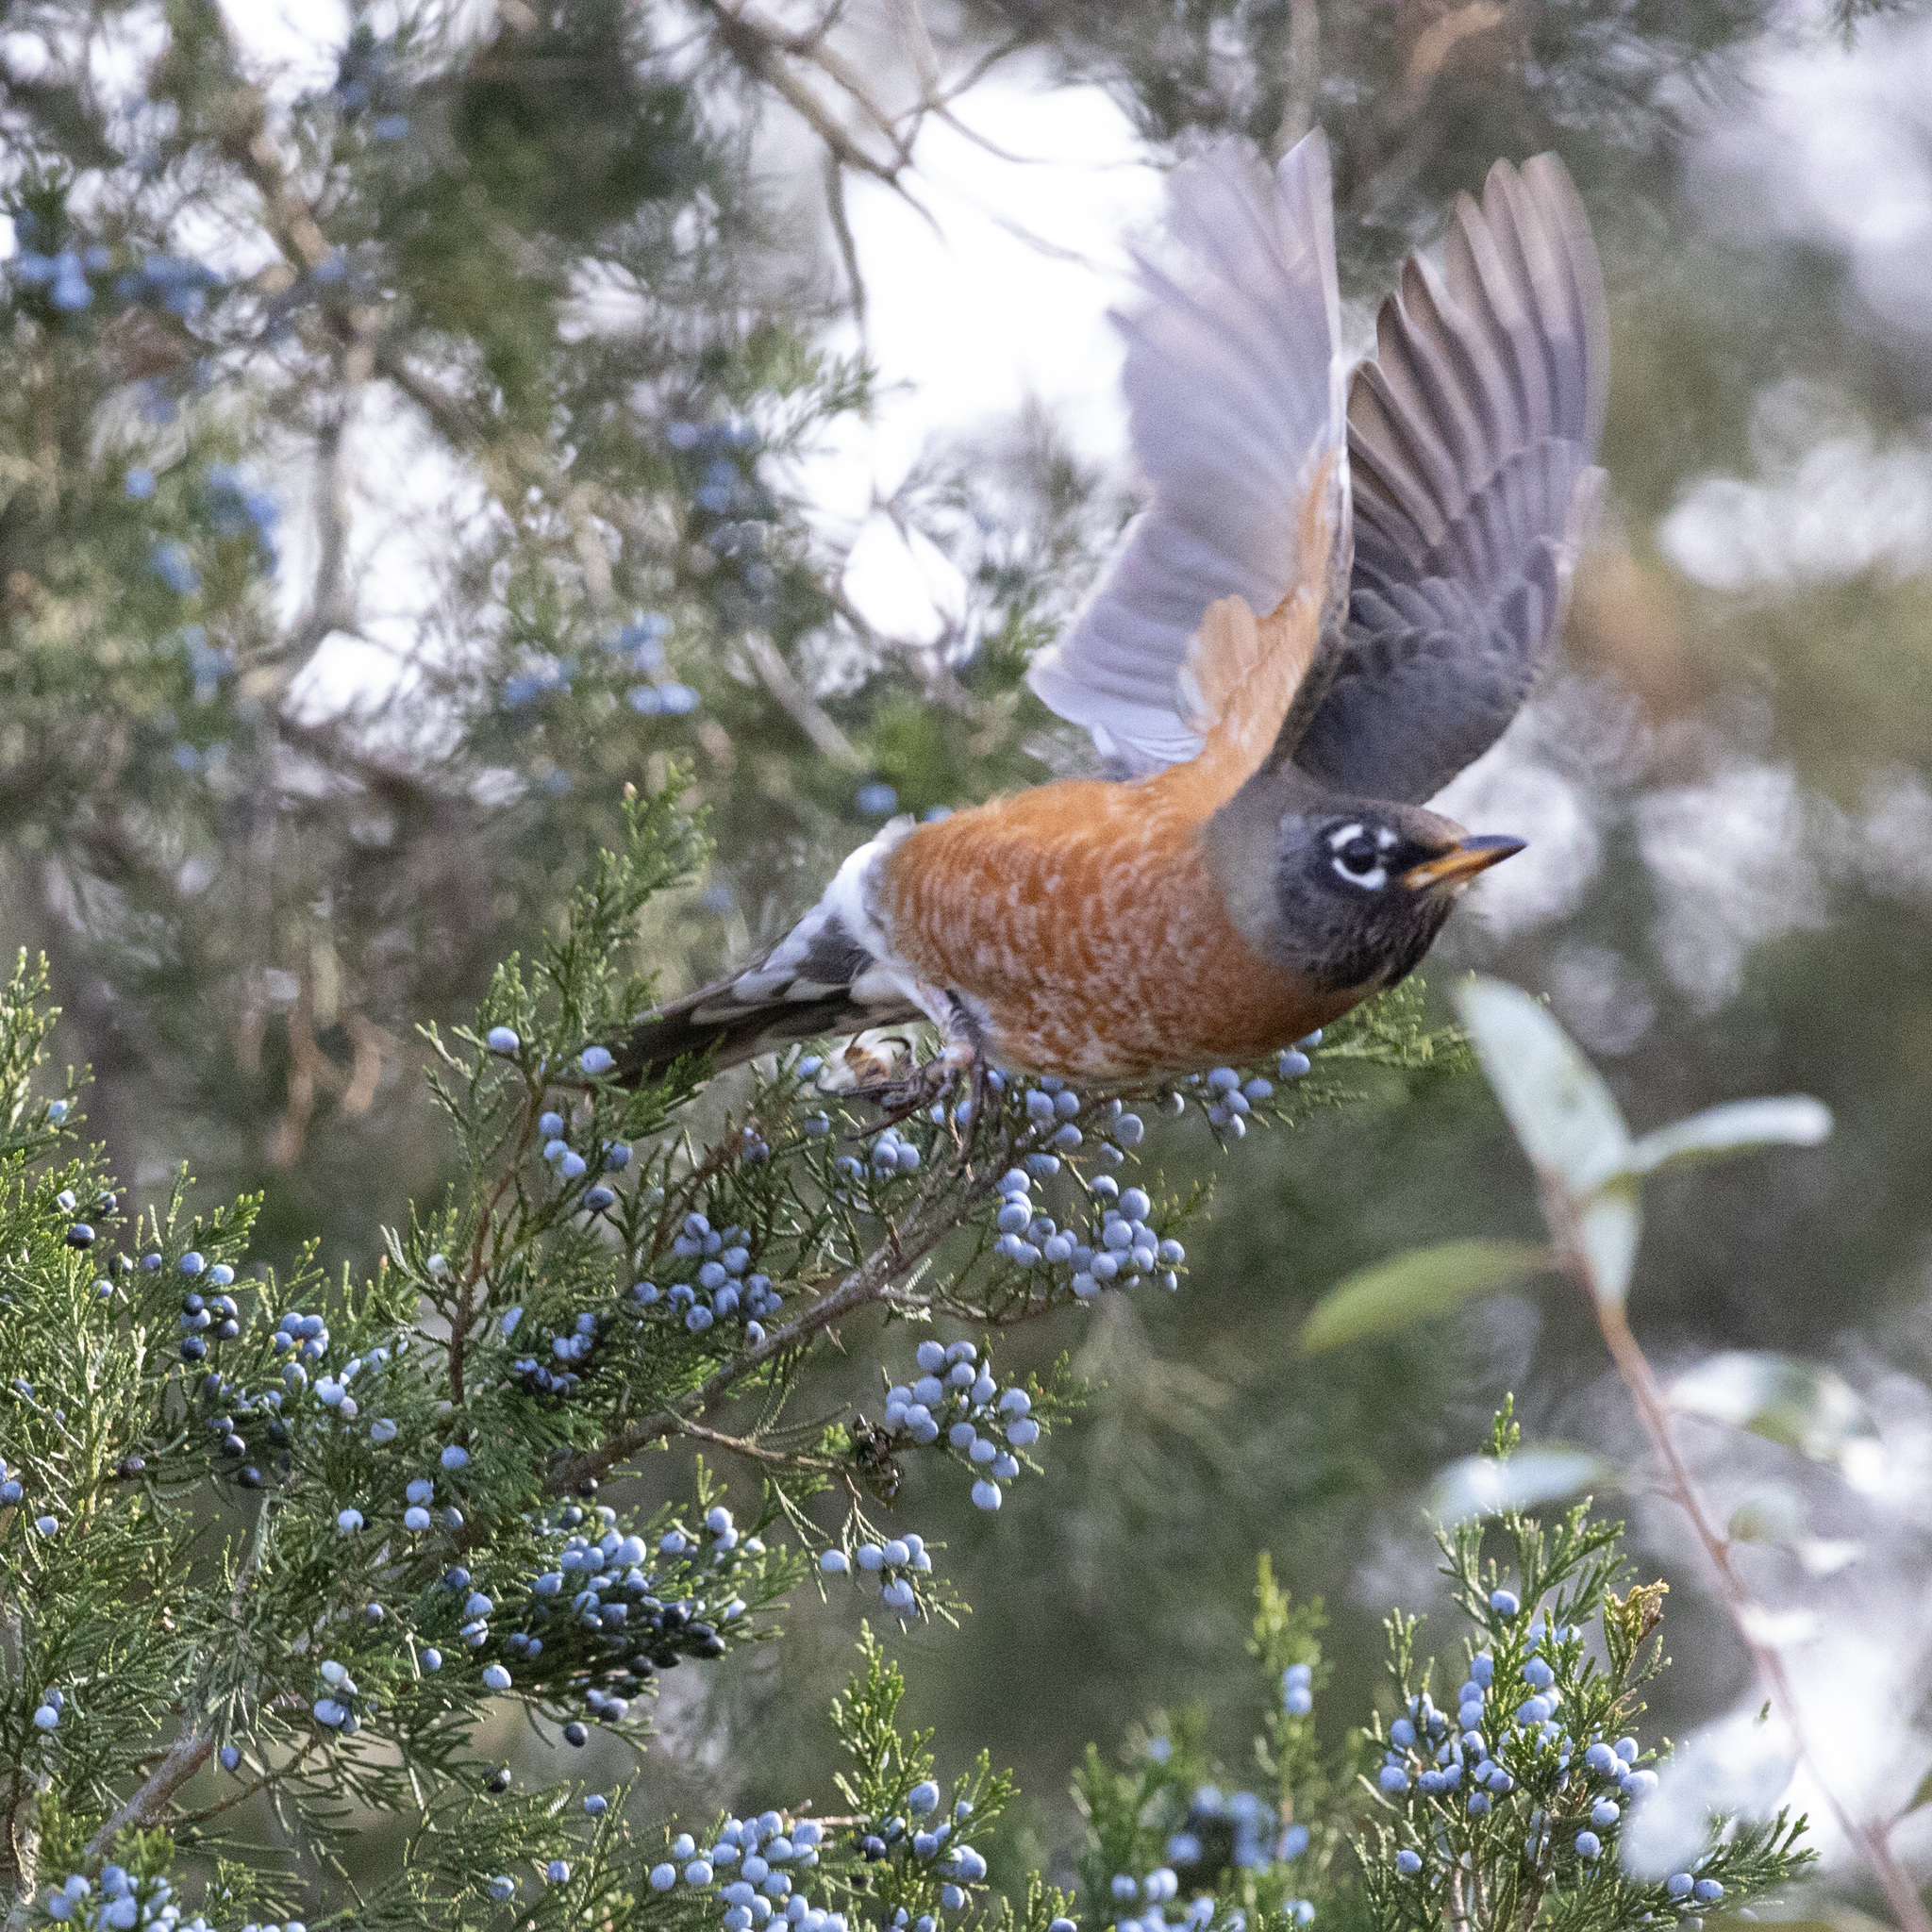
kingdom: Animalia
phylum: Chordata
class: Aves
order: Passeriformes
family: Turdidae
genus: Turdus
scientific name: Turdus migratorius
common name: American robin
